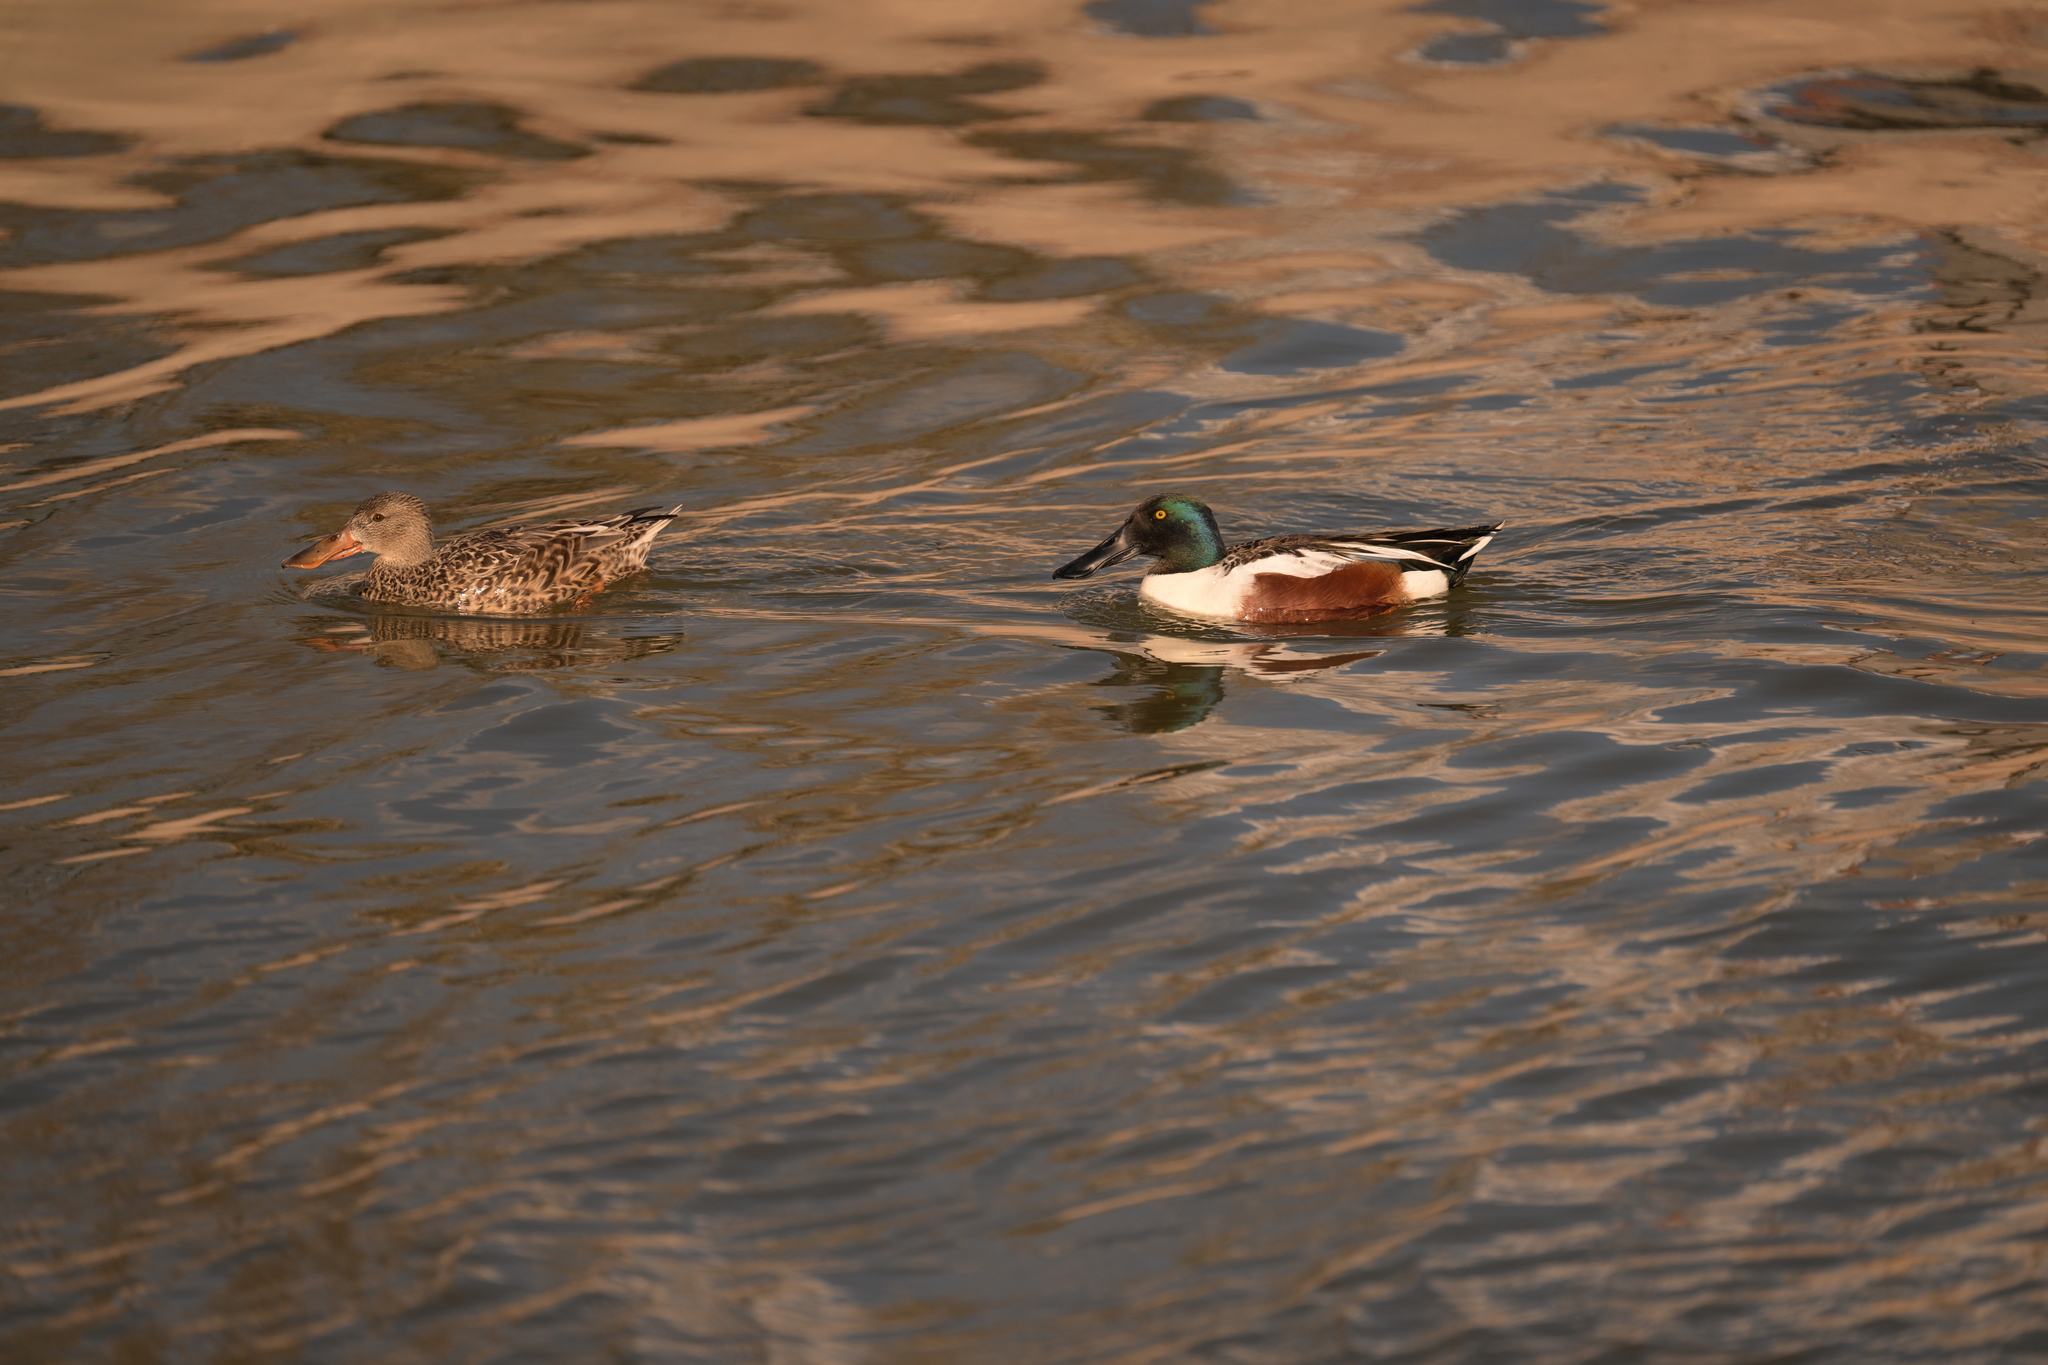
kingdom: Animalia
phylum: Chordata
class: Aves
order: Anseriformes
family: Anatidae
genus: Spatula
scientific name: Spatula clypeata
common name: Northern shoveler
